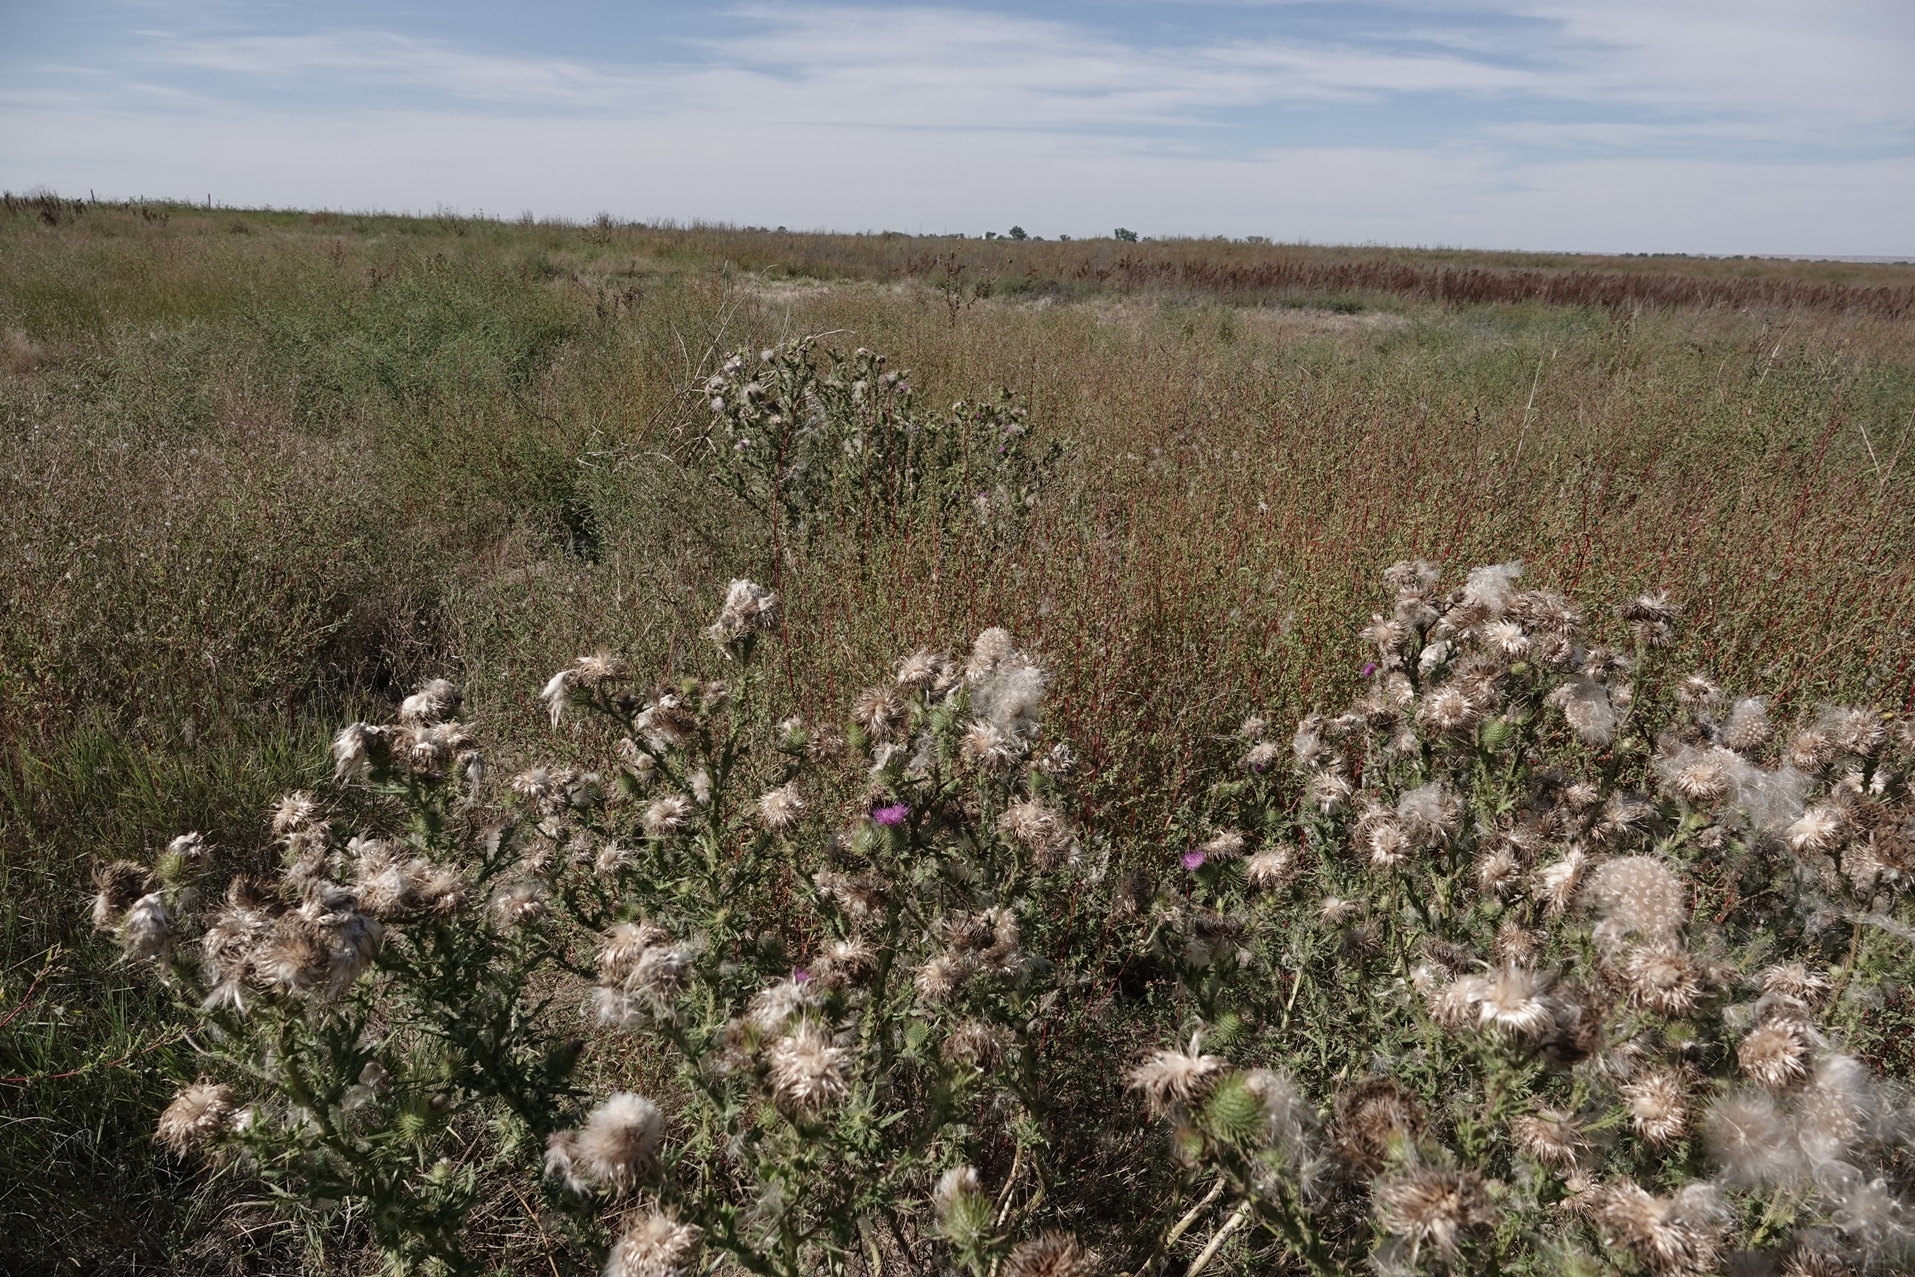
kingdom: Plantae
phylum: Tracheophyta
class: Magnoliopsida
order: Asterales
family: Asteraceae
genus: Cirsium
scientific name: Cirsium vulgare
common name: Bull thistle
